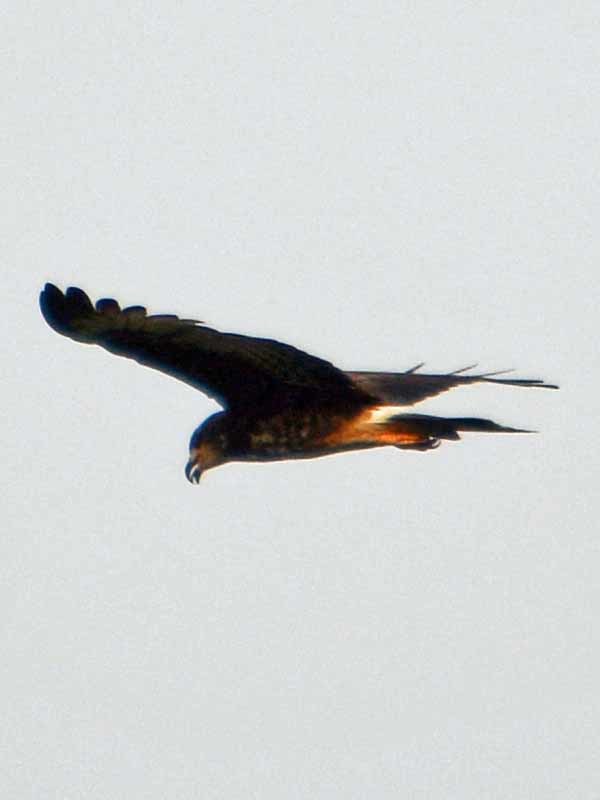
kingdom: Animalia
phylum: Chordata
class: Aves
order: Accipitriformes
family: Accipitridae
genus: Rostrhamus
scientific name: Rostrhamus sociabilis
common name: Snail kite
